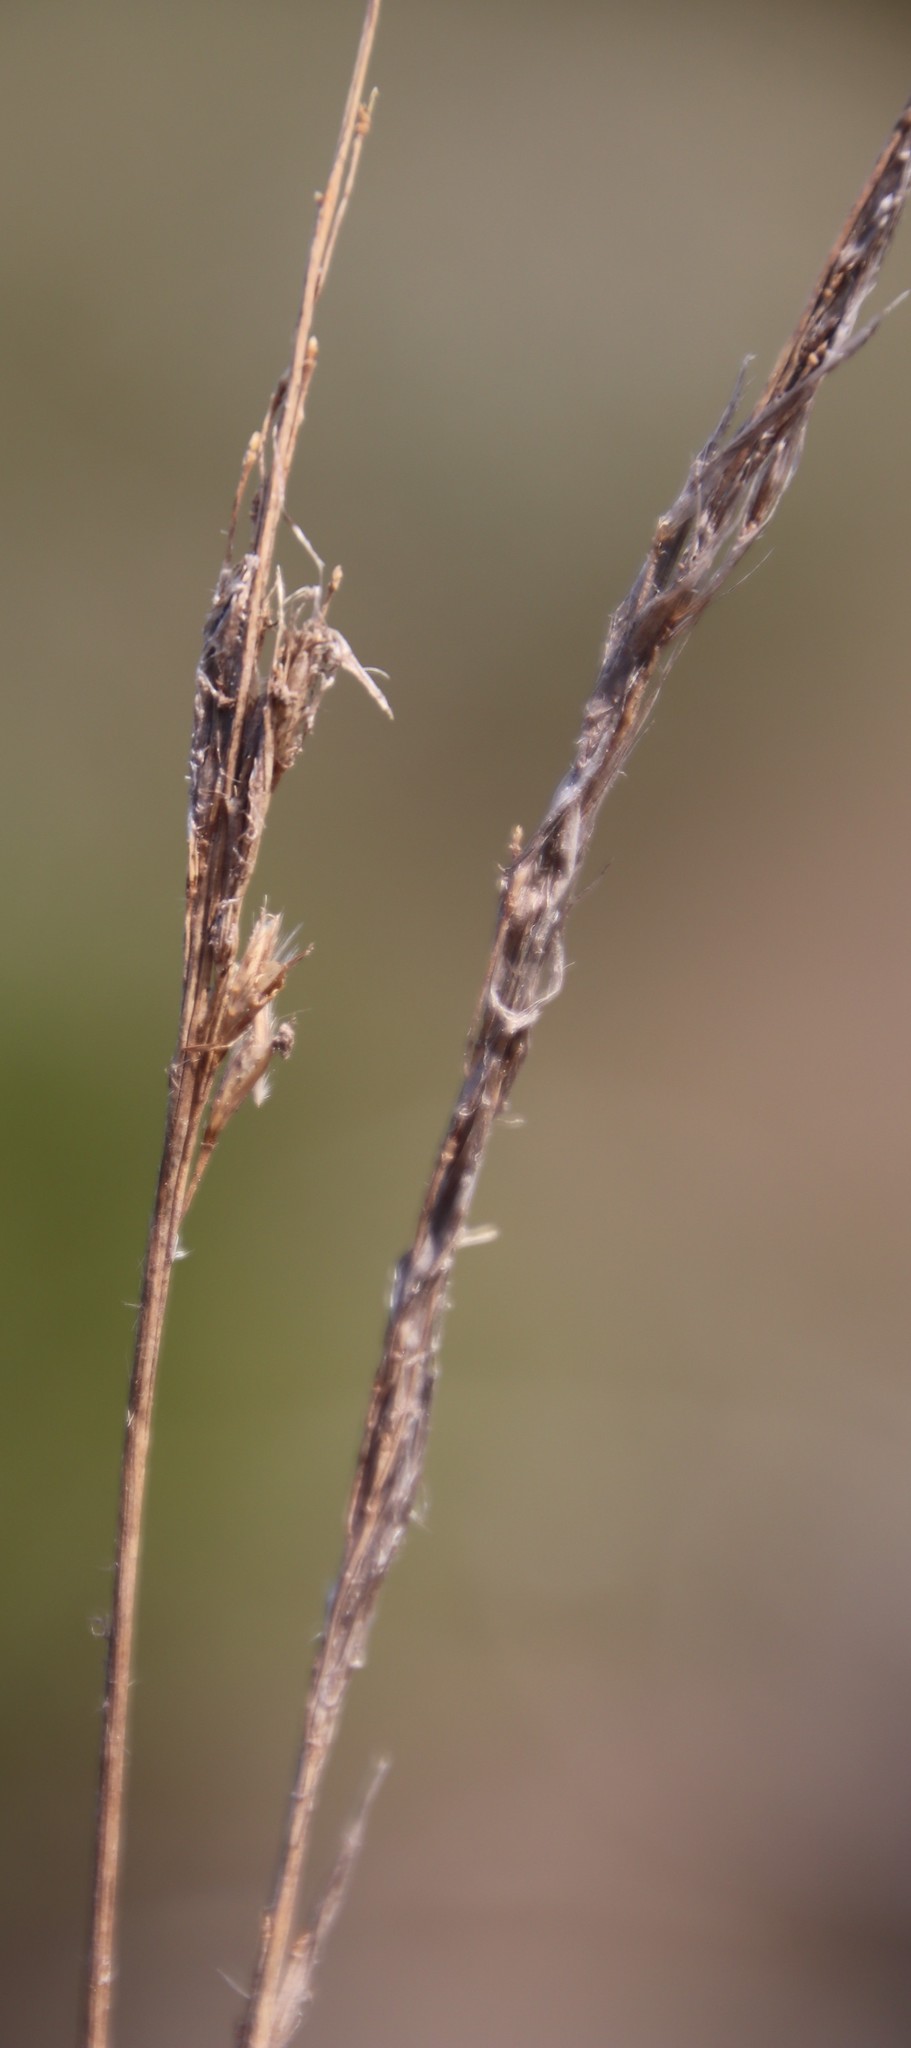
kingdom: Plantae
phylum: Tracheophyta
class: Liliopsida
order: Poales
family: Poaceae
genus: Tenaxia
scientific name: Tenaxia stricta
